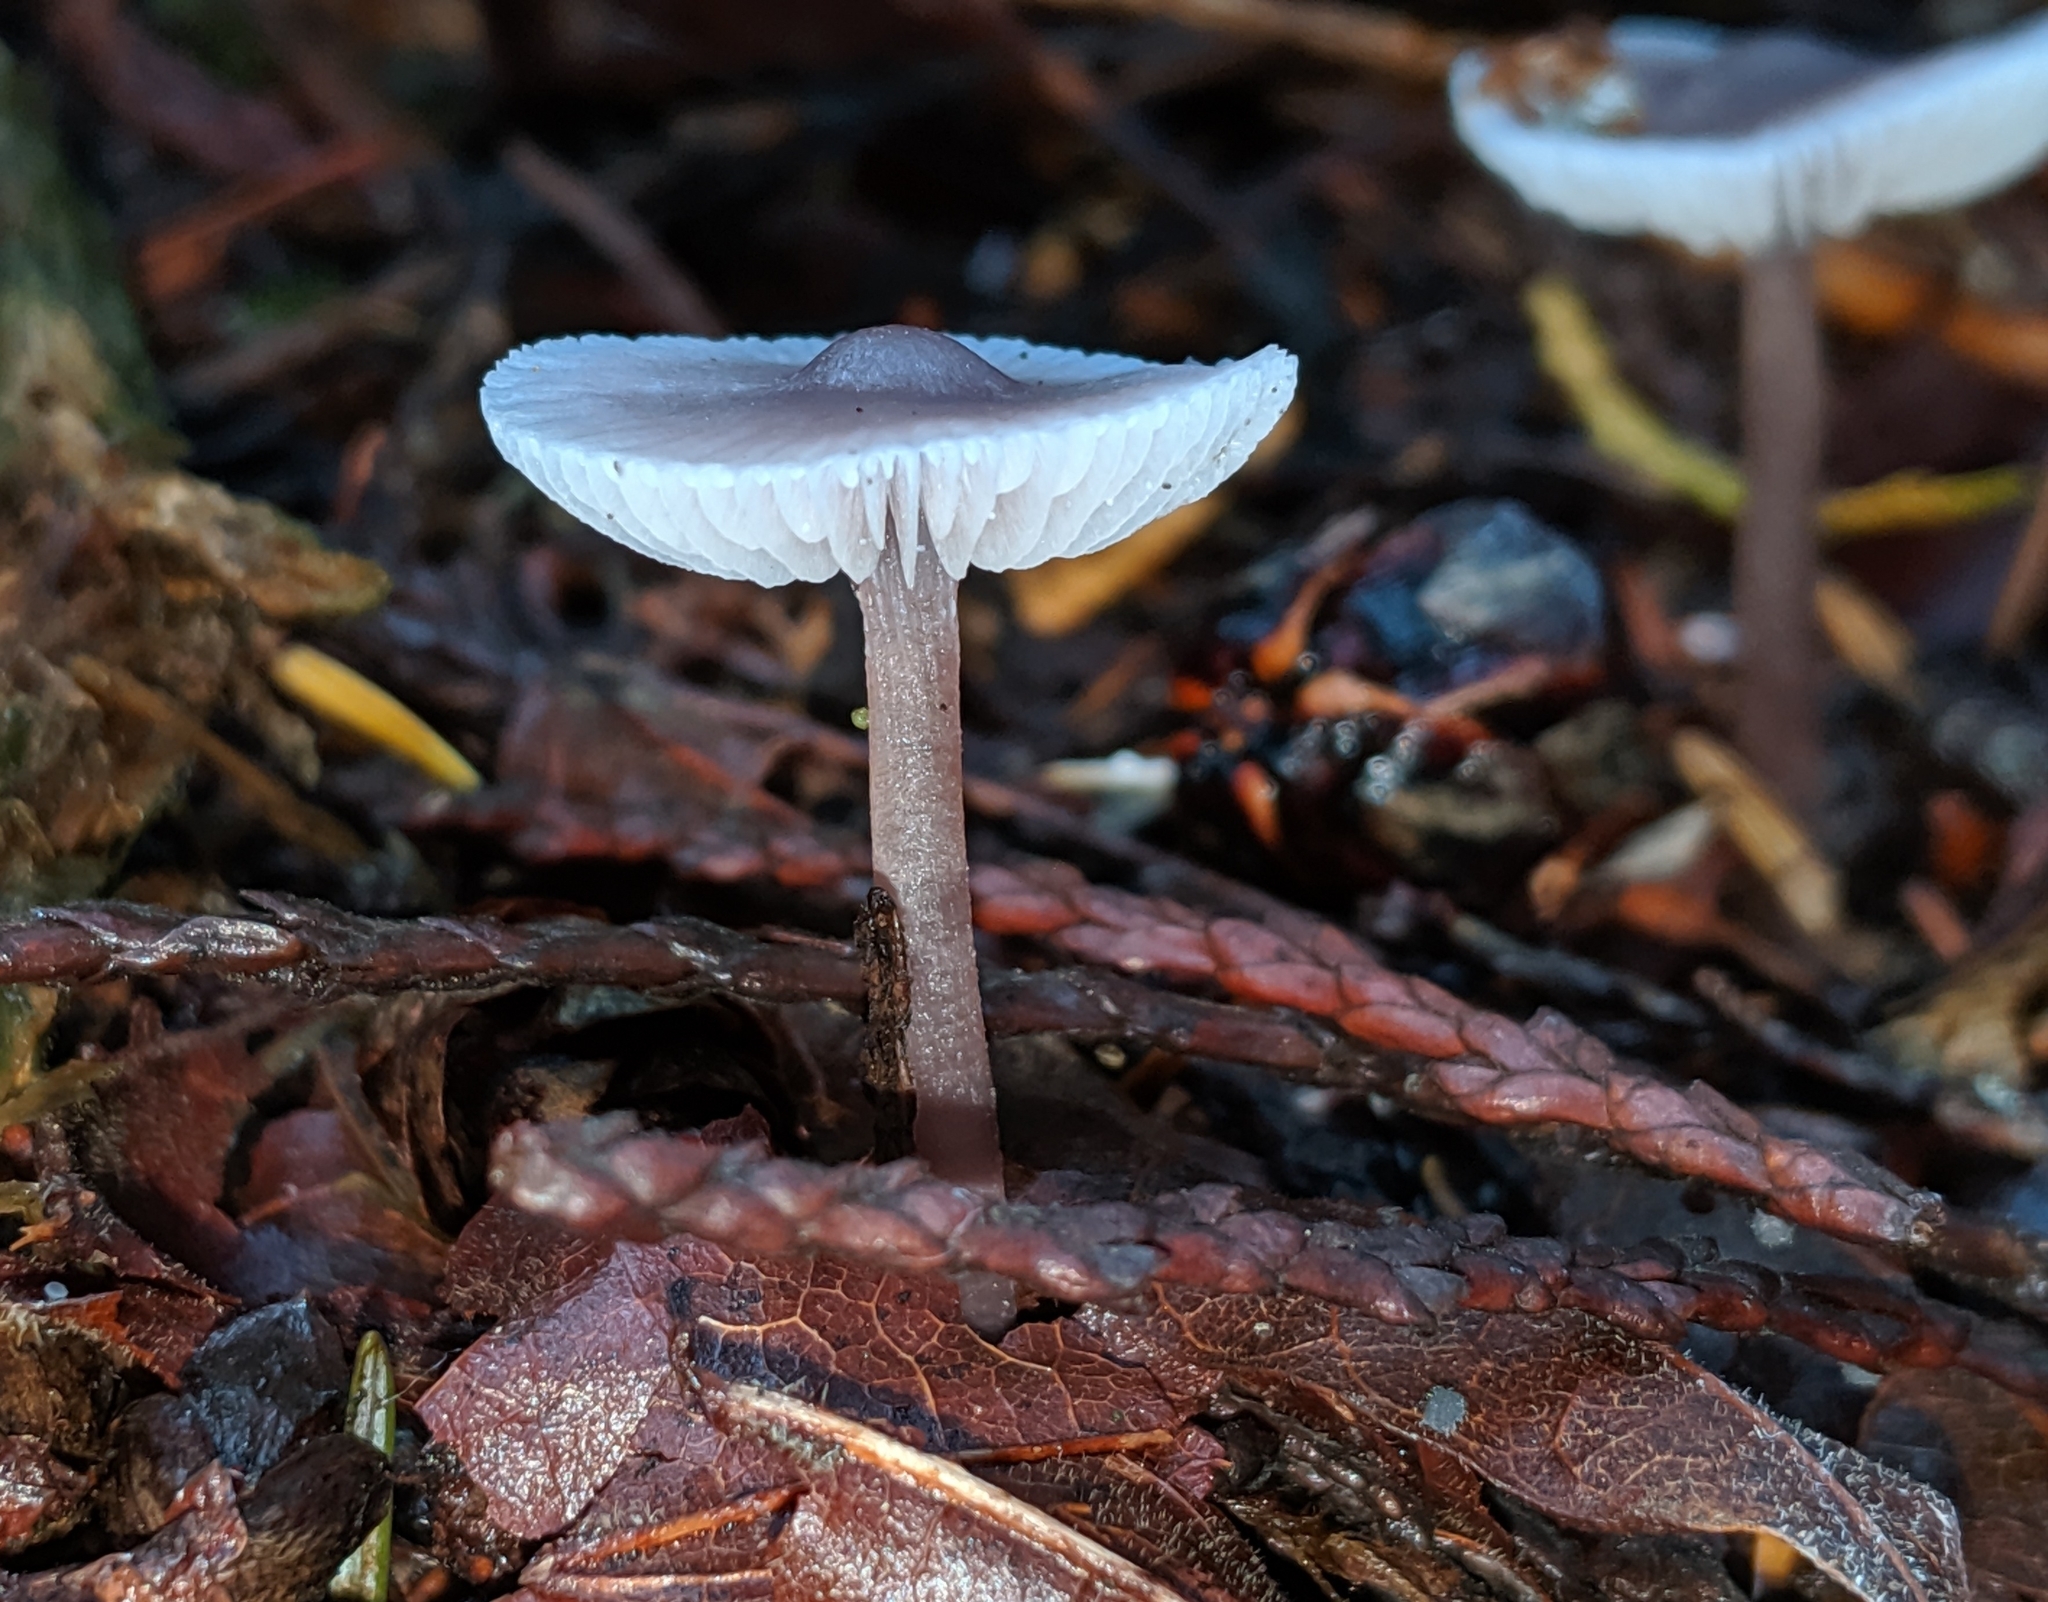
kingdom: Fungi
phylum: Basidiomycota
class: Agaricomycetes
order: Agaricales
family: Mycenaceae
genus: Mycena
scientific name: Mycena pura
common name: Lilac bonnet
